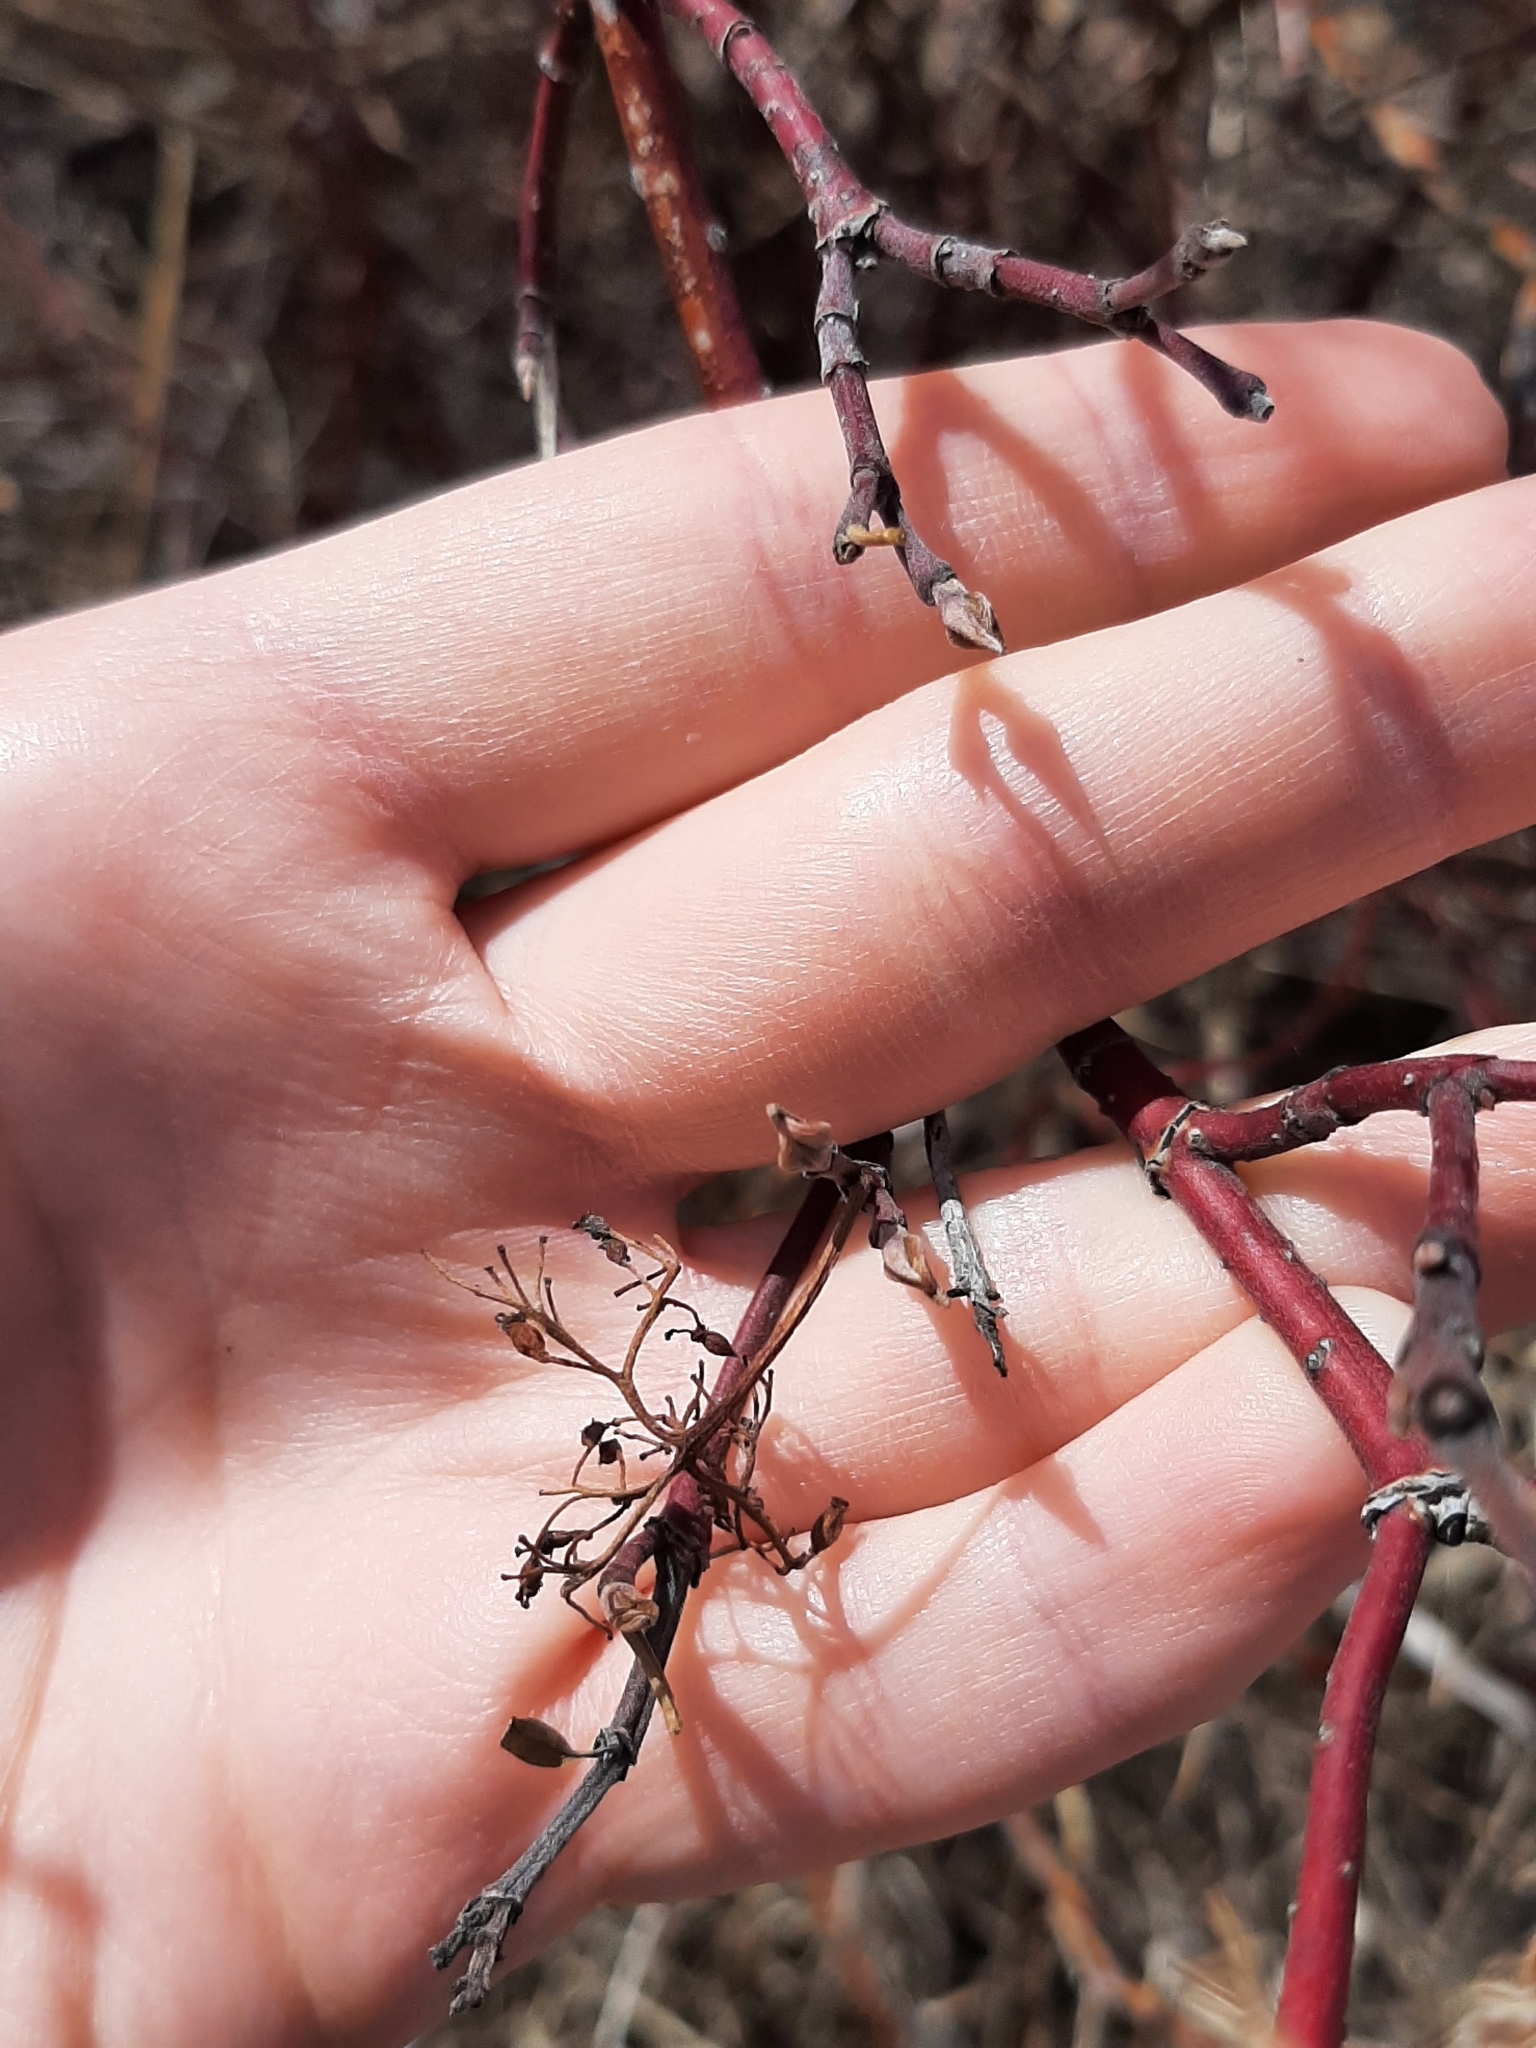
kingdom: Plantae
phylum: Tracheophyta
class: Magnoliopsida
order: Cornales
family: Cornaceae
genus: Cornus
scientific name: Cornus sericea
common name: Red-osier dogwood
